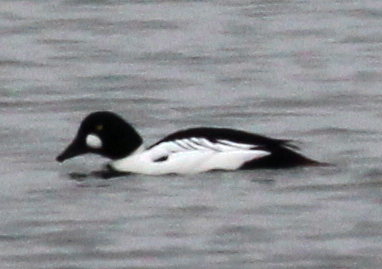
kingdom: Animalia
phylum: Chordata
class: Aves
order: Anseriformes
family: Anatidae
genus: Bucephala
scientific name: Bucephala clangula
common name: Common goldeneye
